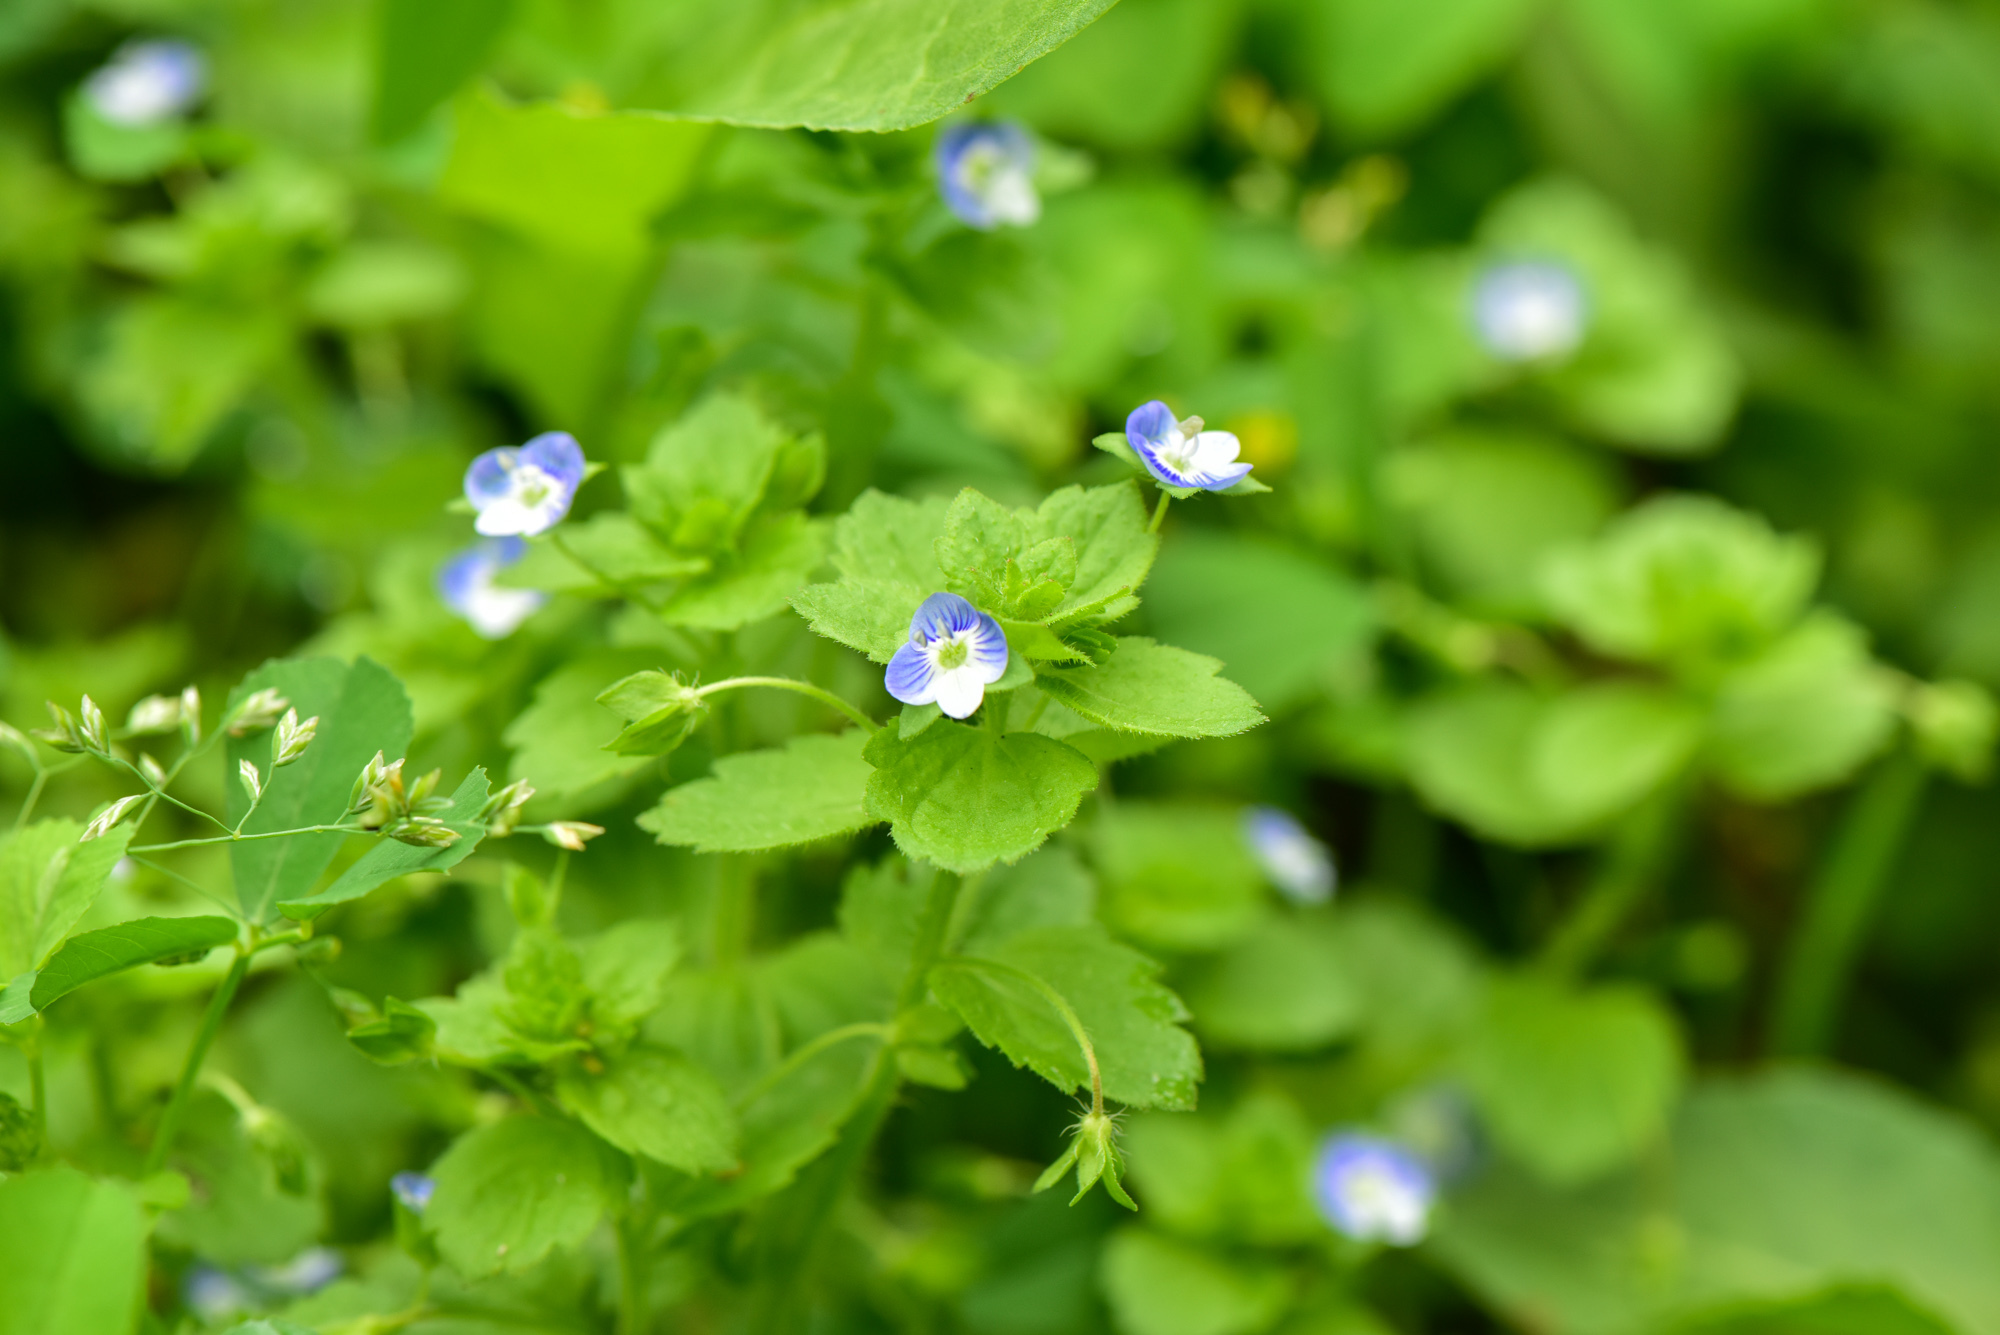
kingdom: Plantae
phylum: Tracheophyta
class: Magnoliopsida
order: Lamiales
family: Plantaginaceae
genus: Veronica
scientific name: Veronica persica
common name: Common field-speedwell
